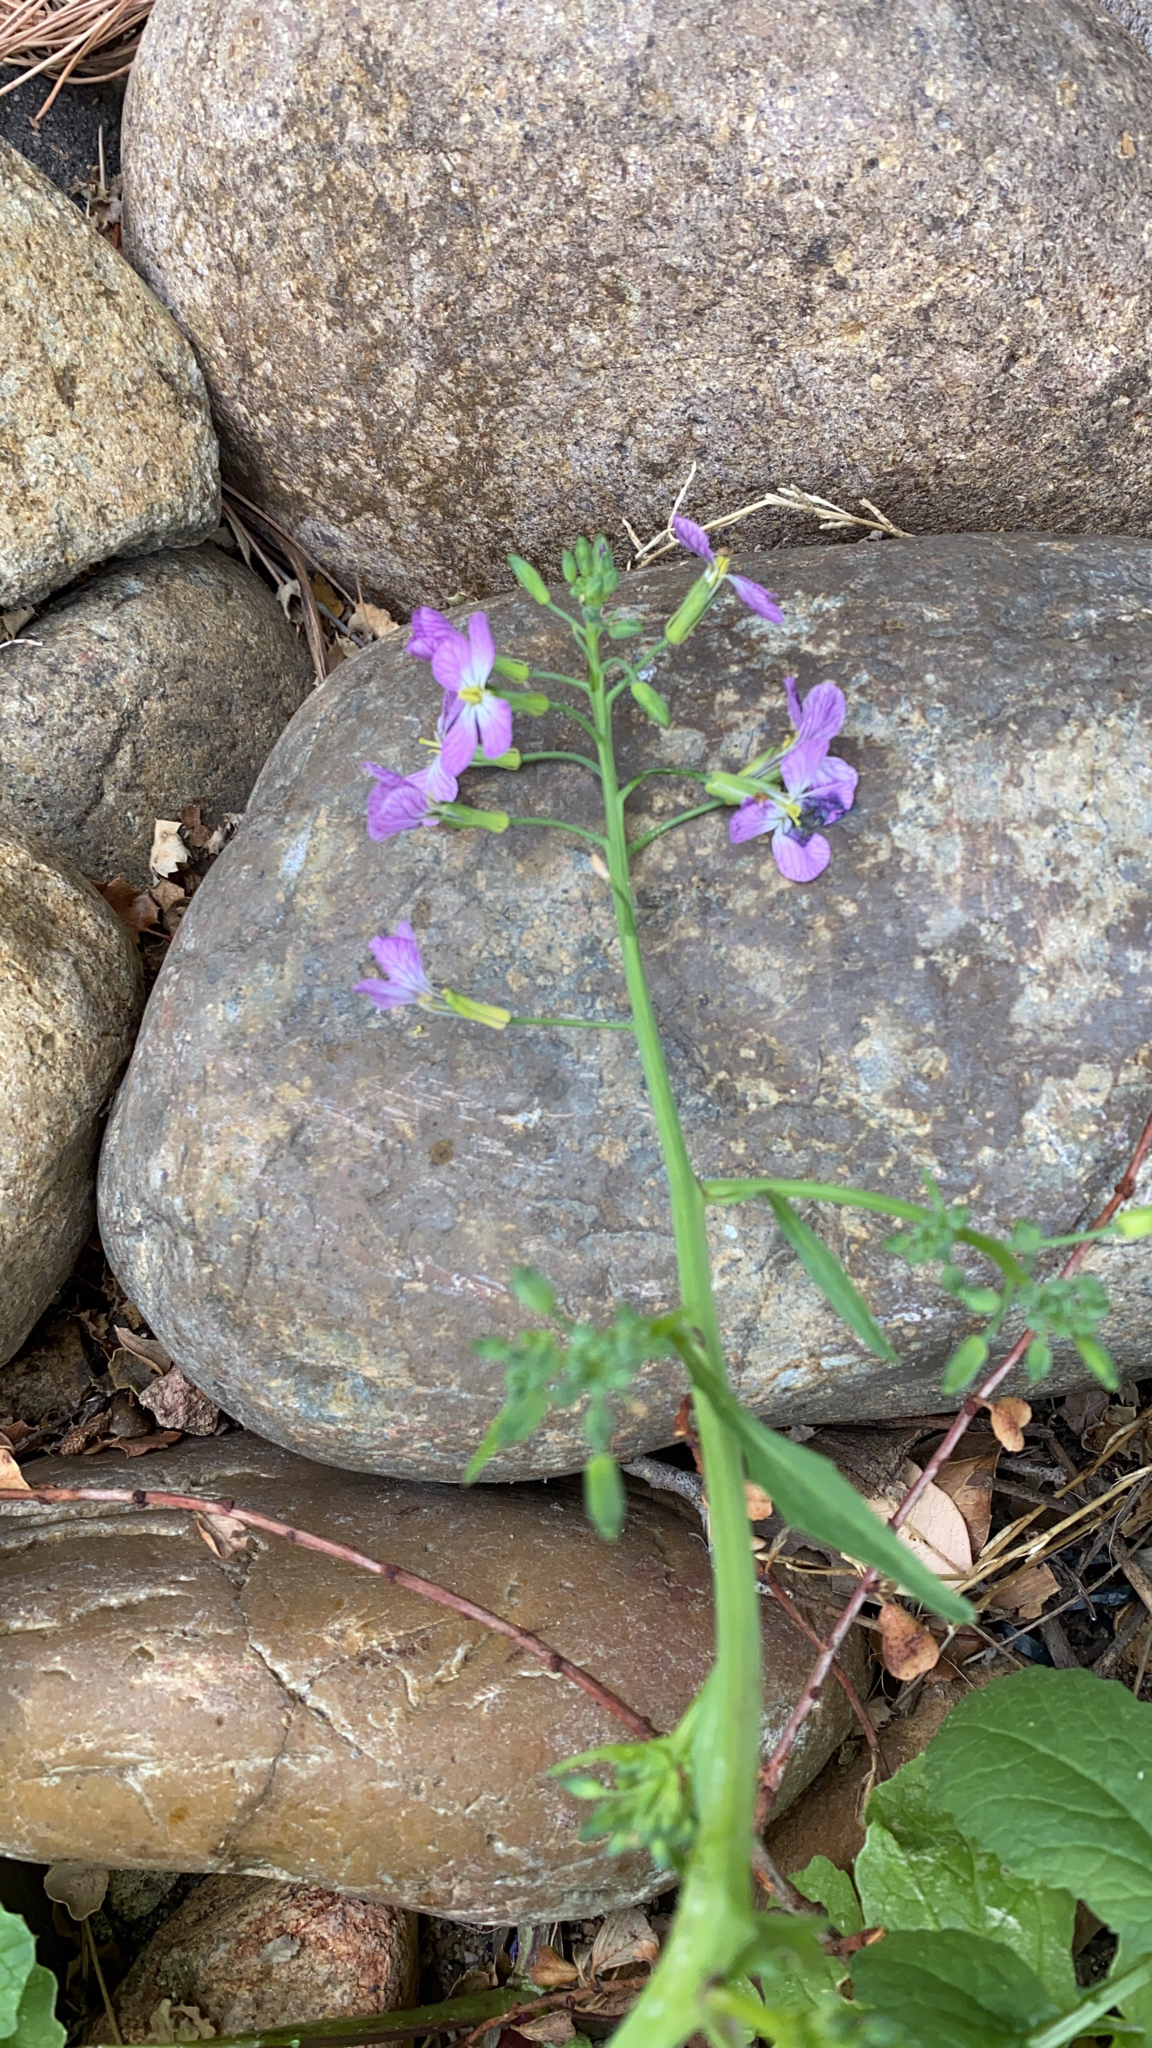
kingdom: Plantae
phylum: Tracheophyta
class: Magnoliopsida
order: Brassicales
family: Brassicaceae
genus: Raphanus
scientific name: Raphanus sativus
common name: Cultivated radish
